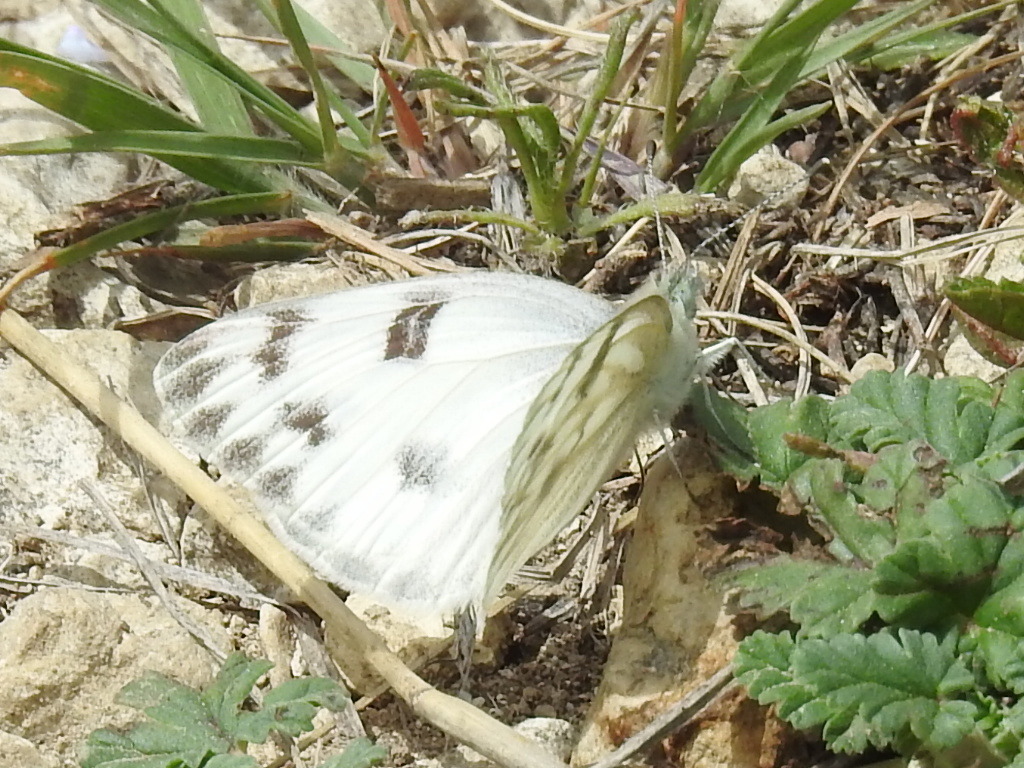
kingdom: Animalia
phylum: Arthropoda
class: Insecta
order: Lepidoptera
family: Pieridae
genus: Pontia
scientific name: Pontia protodice
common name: Checkered white
